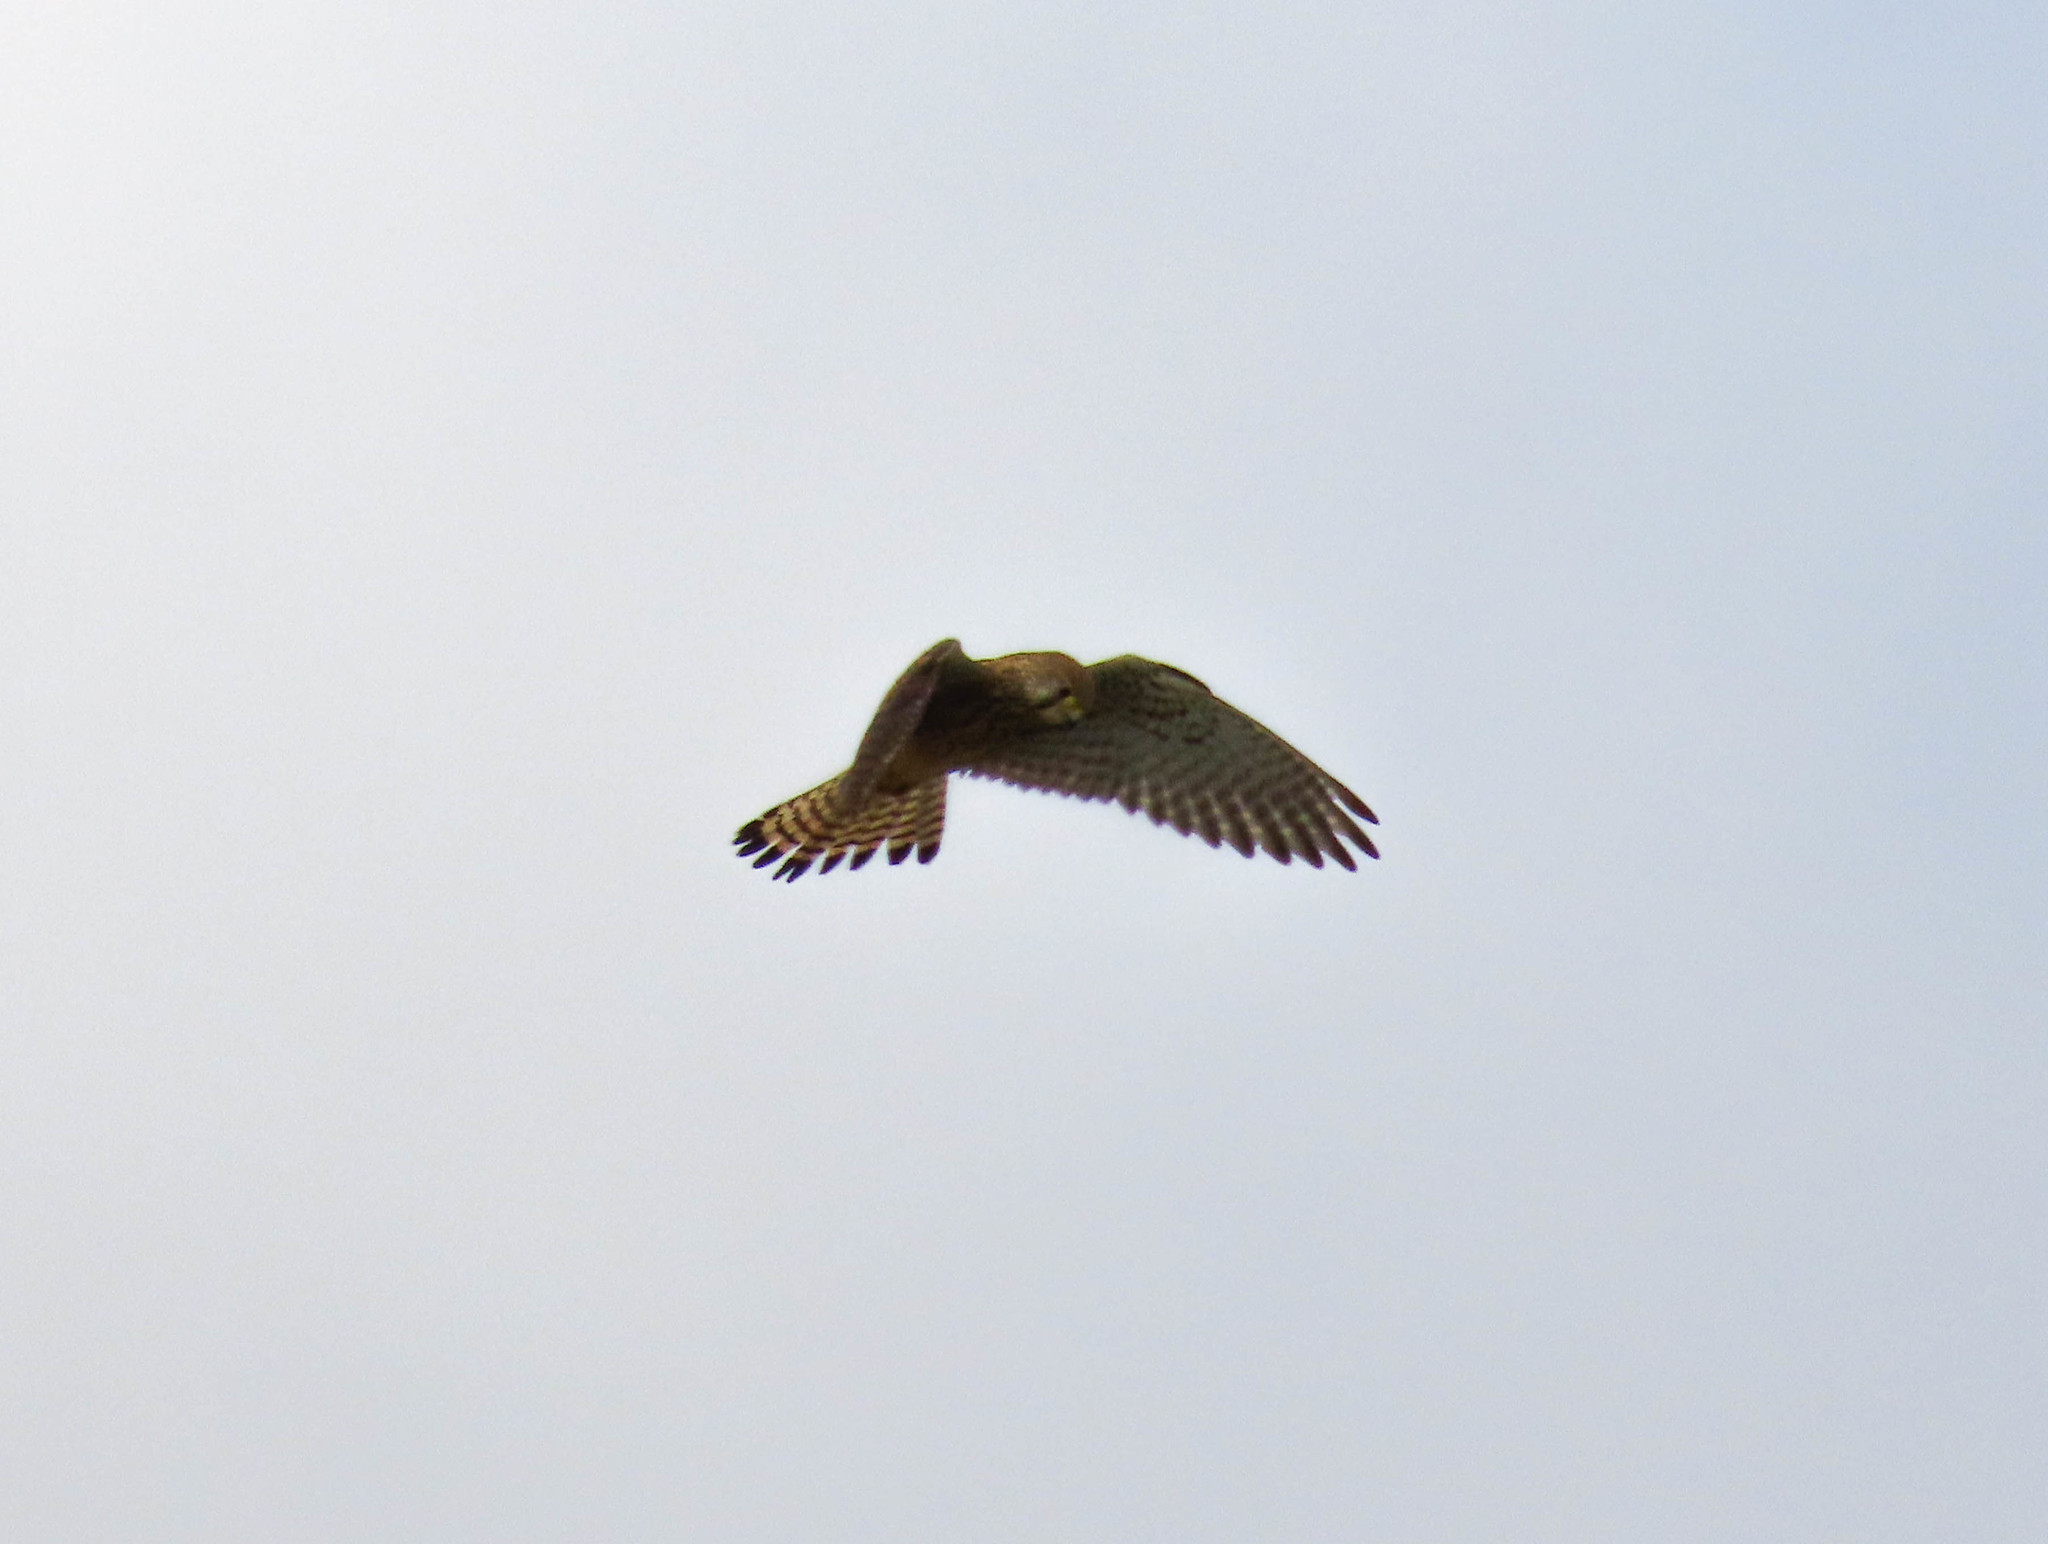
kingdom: Animalia
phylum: Chordata
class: Aves
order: Falconiformes
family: Falconidae
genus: Falco
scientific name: Falco tinnunculus
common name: Common kestrel
